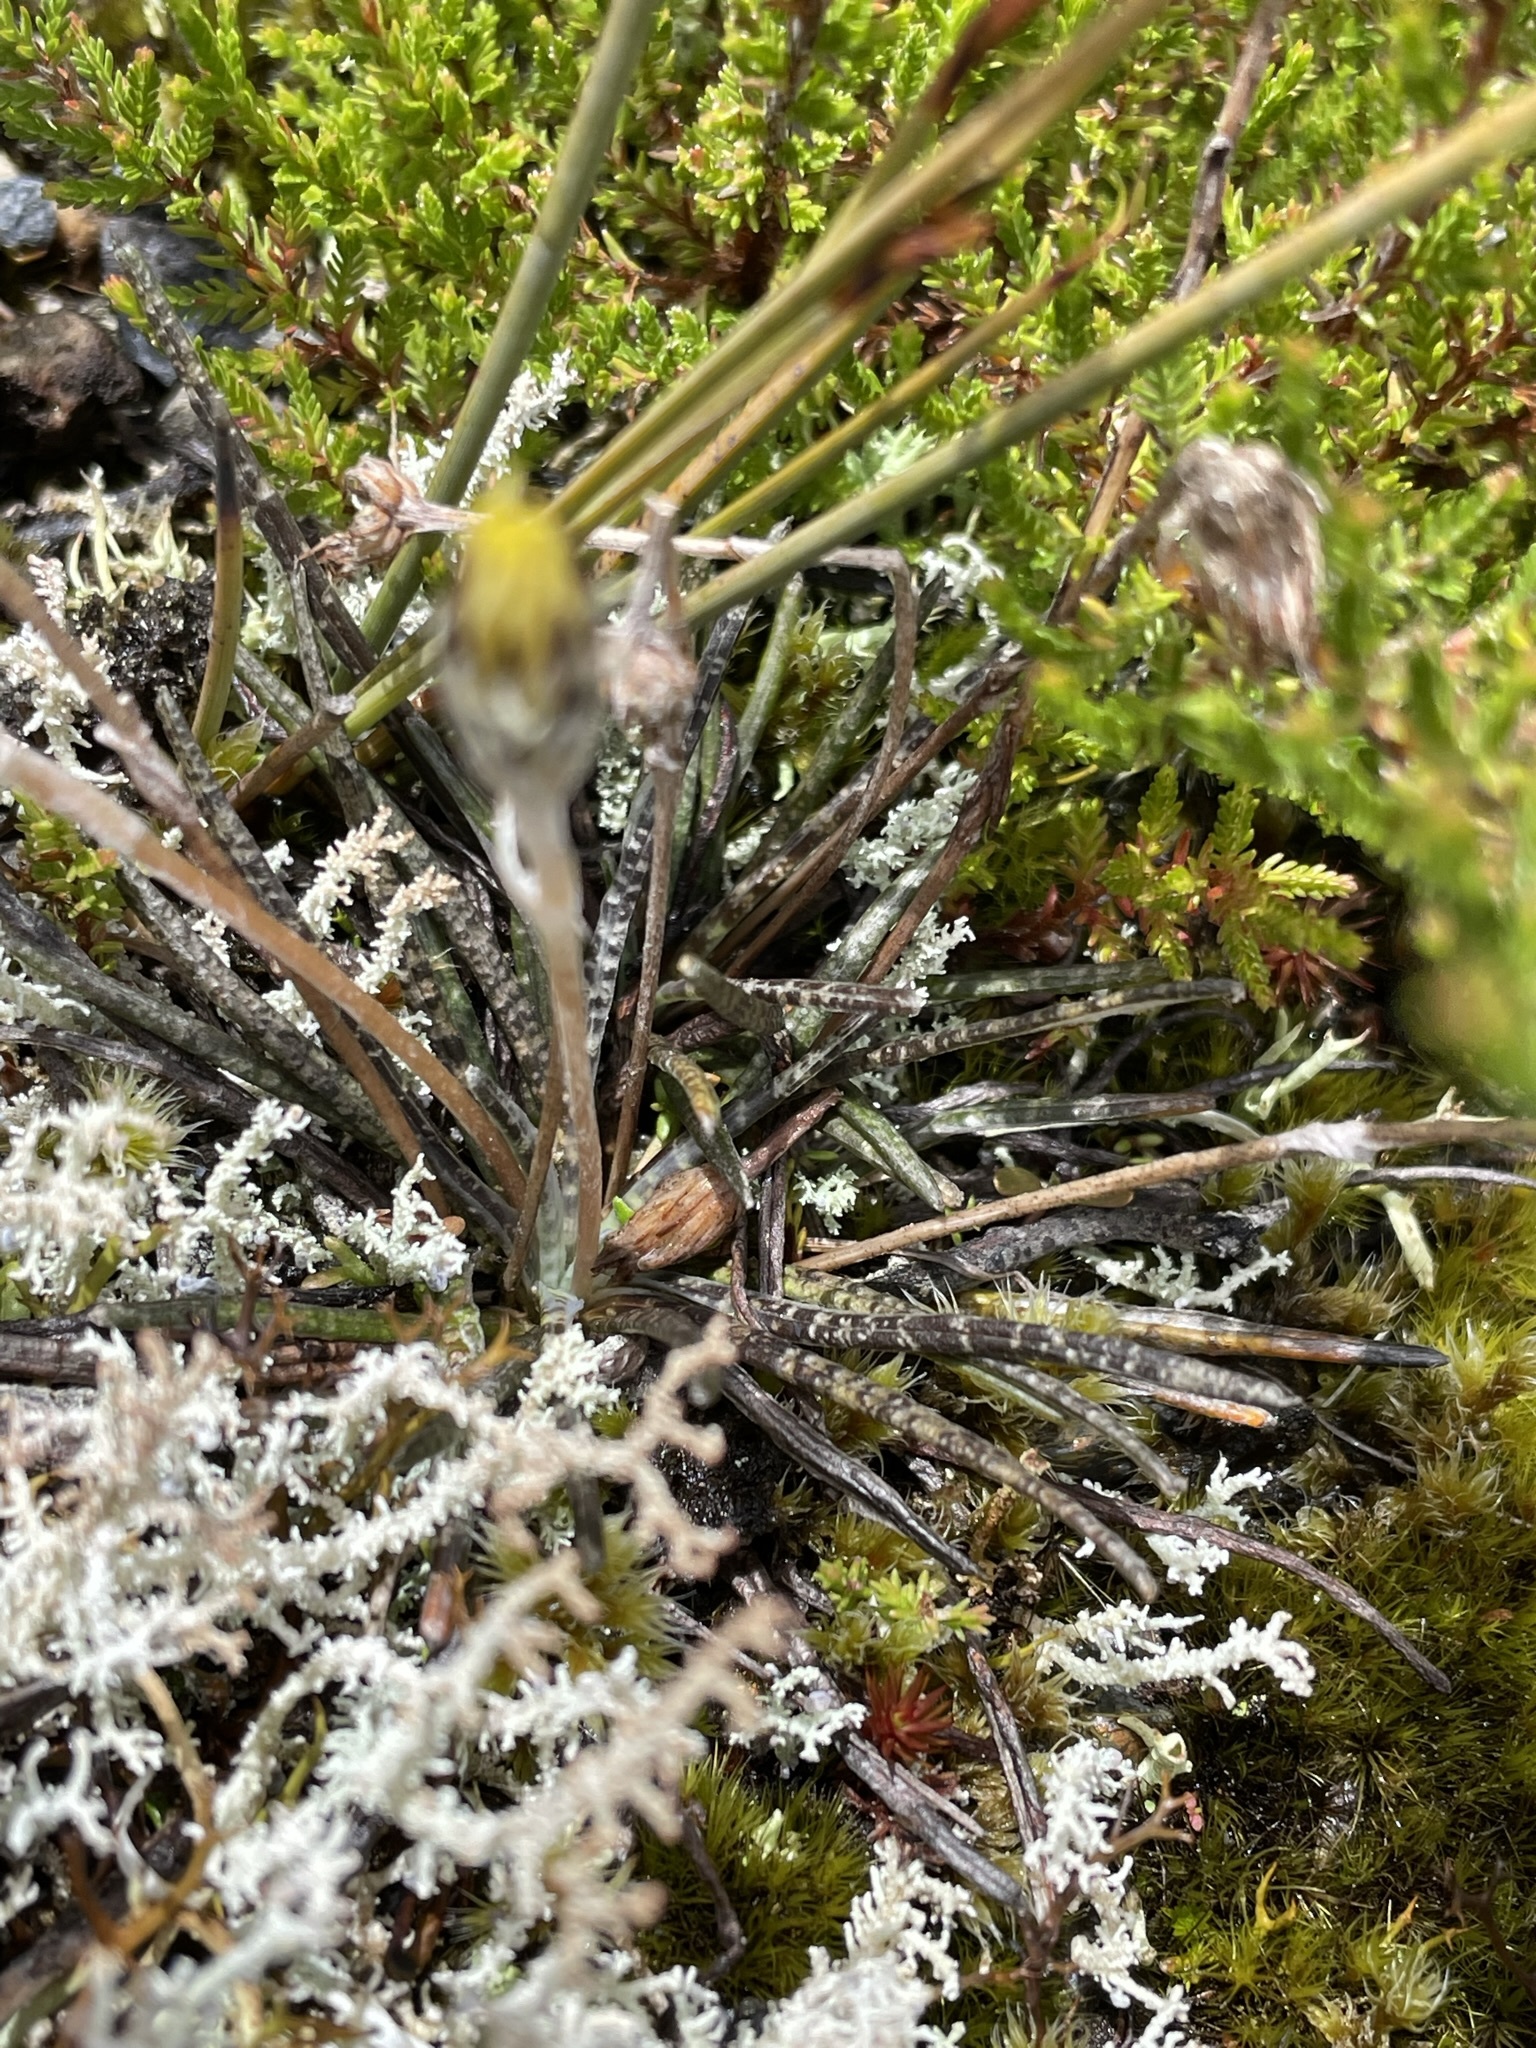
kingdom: Plantae
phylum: Tracheophyta
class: Magnoliopsida
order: Asterales
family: Asteraceae
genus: Celmisia
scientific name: Celmisia gracilenta
